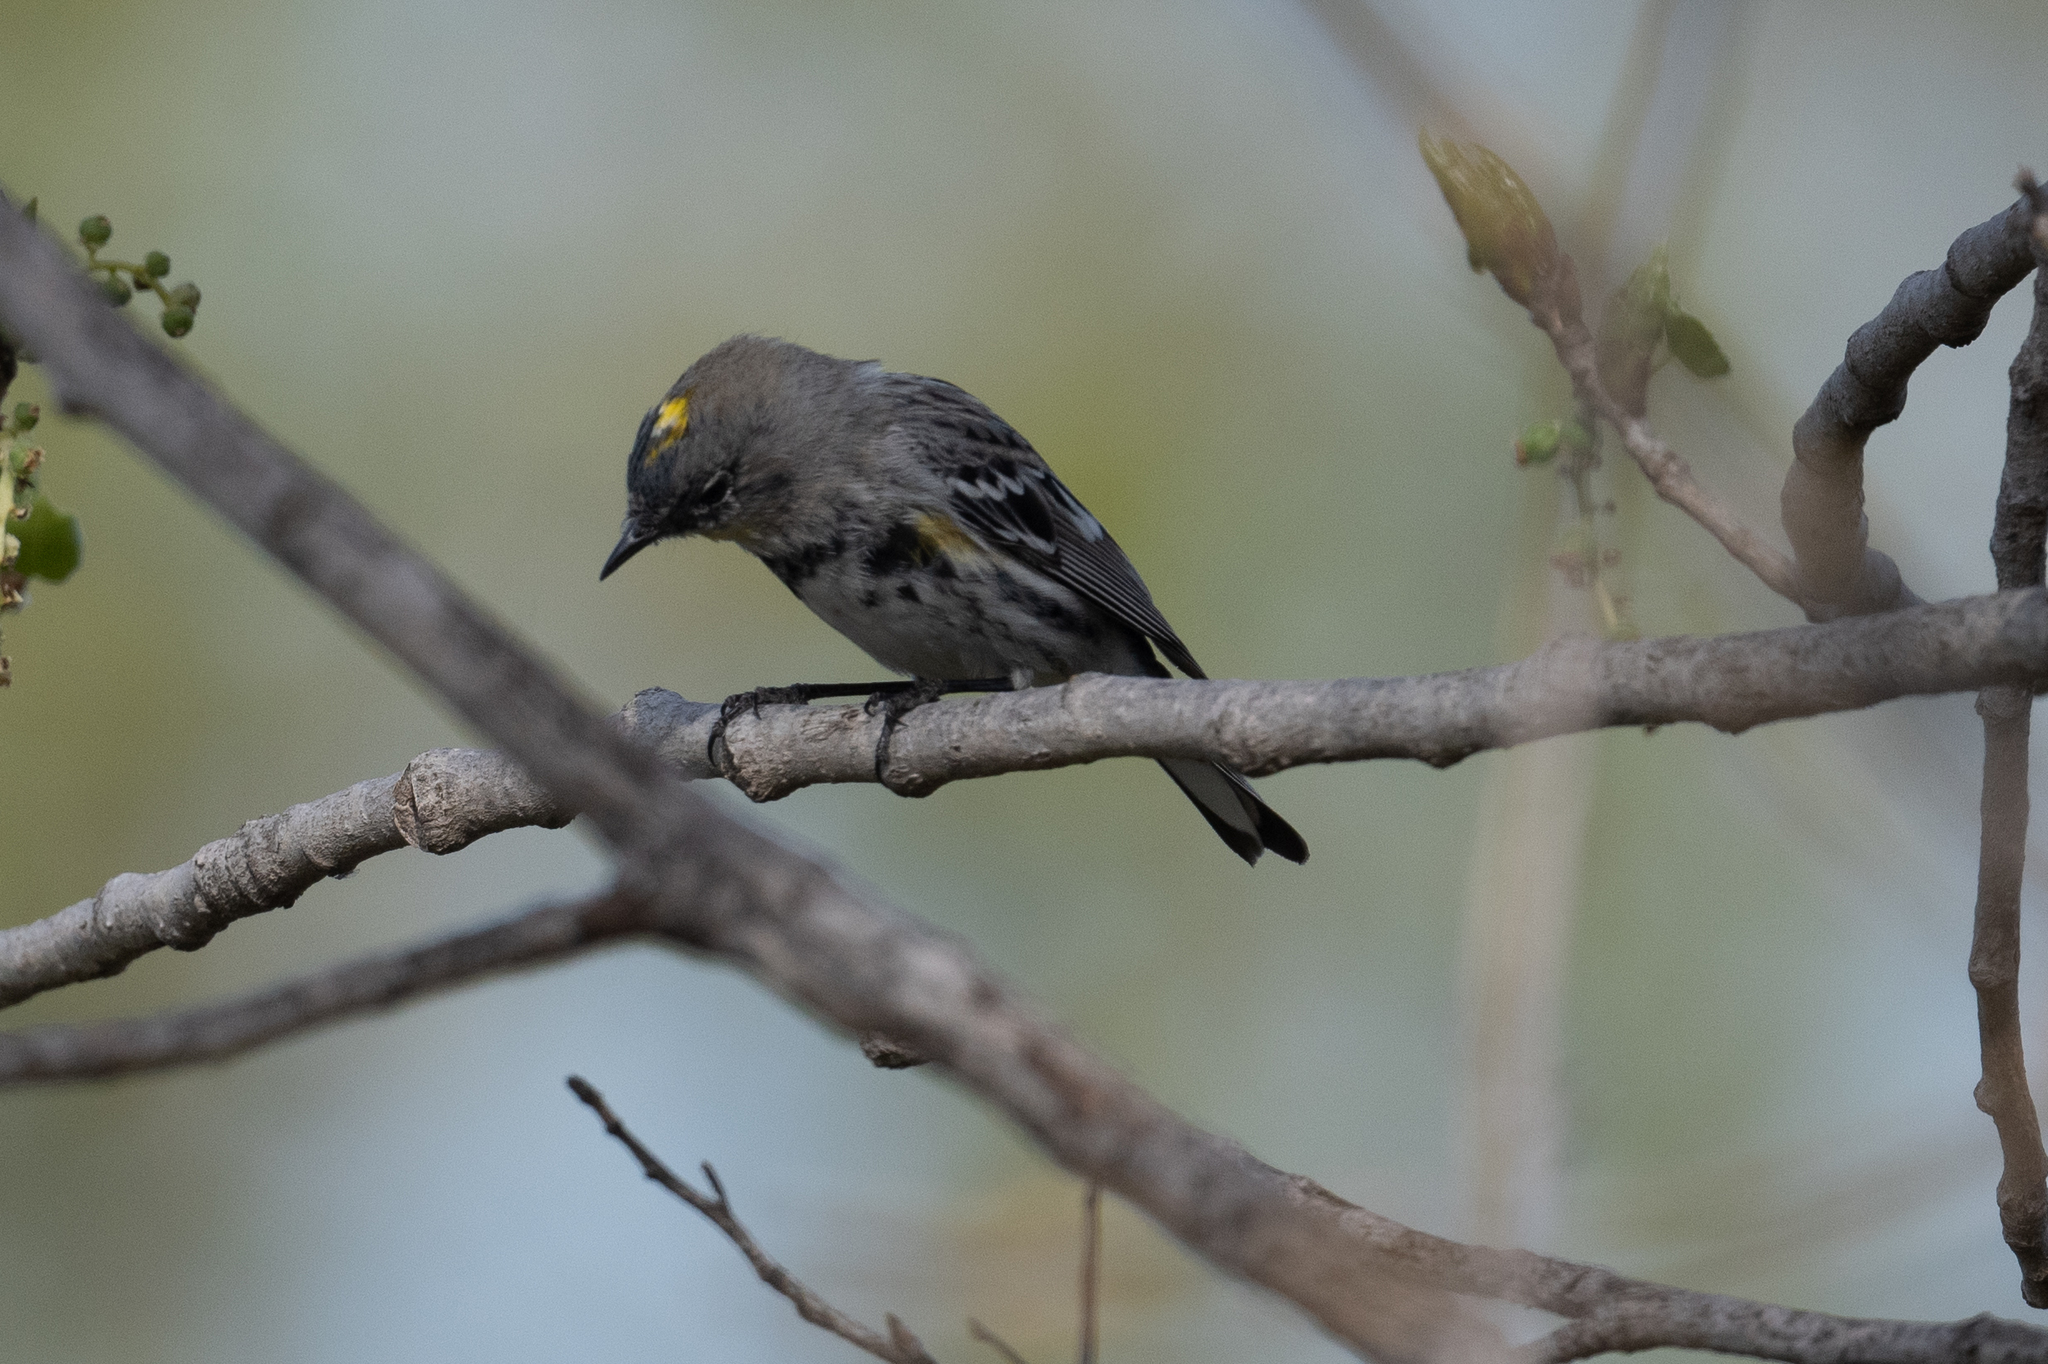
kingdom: Animalia
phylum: Chordata
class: Aves
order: Passeriformes
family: Parulidae
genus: Setophaga
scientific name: Setophaga coronata
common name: Myrtle warbler
